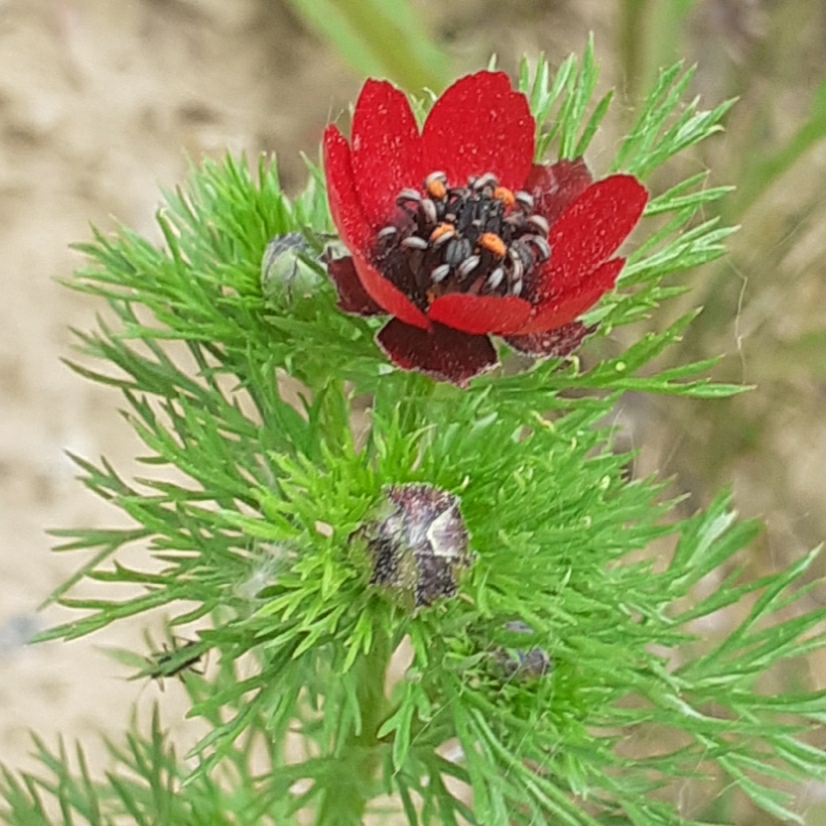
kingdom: Plantae
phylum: Tracheophyta
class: Magnoliopsida
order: Ranunculales
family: Ranunculaceae
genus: Adonis
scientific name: Adonis annua
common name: Pheasant's-eye
